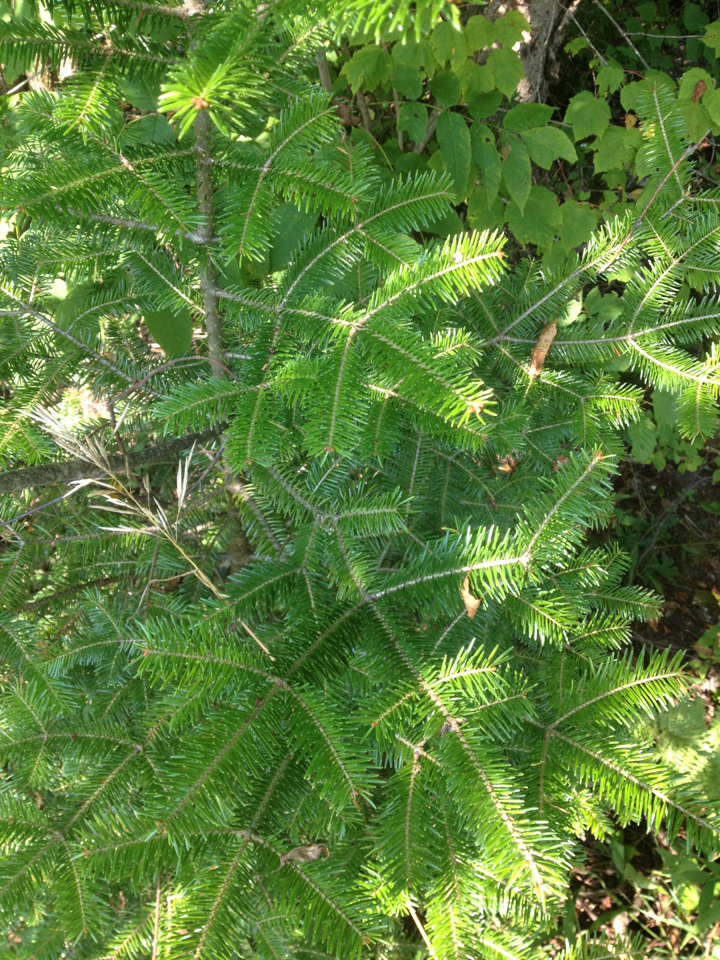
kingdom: Plantae
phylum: Tracheophyta
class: Pinopsida
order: Pinales
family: Pinaceae
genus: Abies
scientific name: Abies balsamea
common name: Balsam fir
